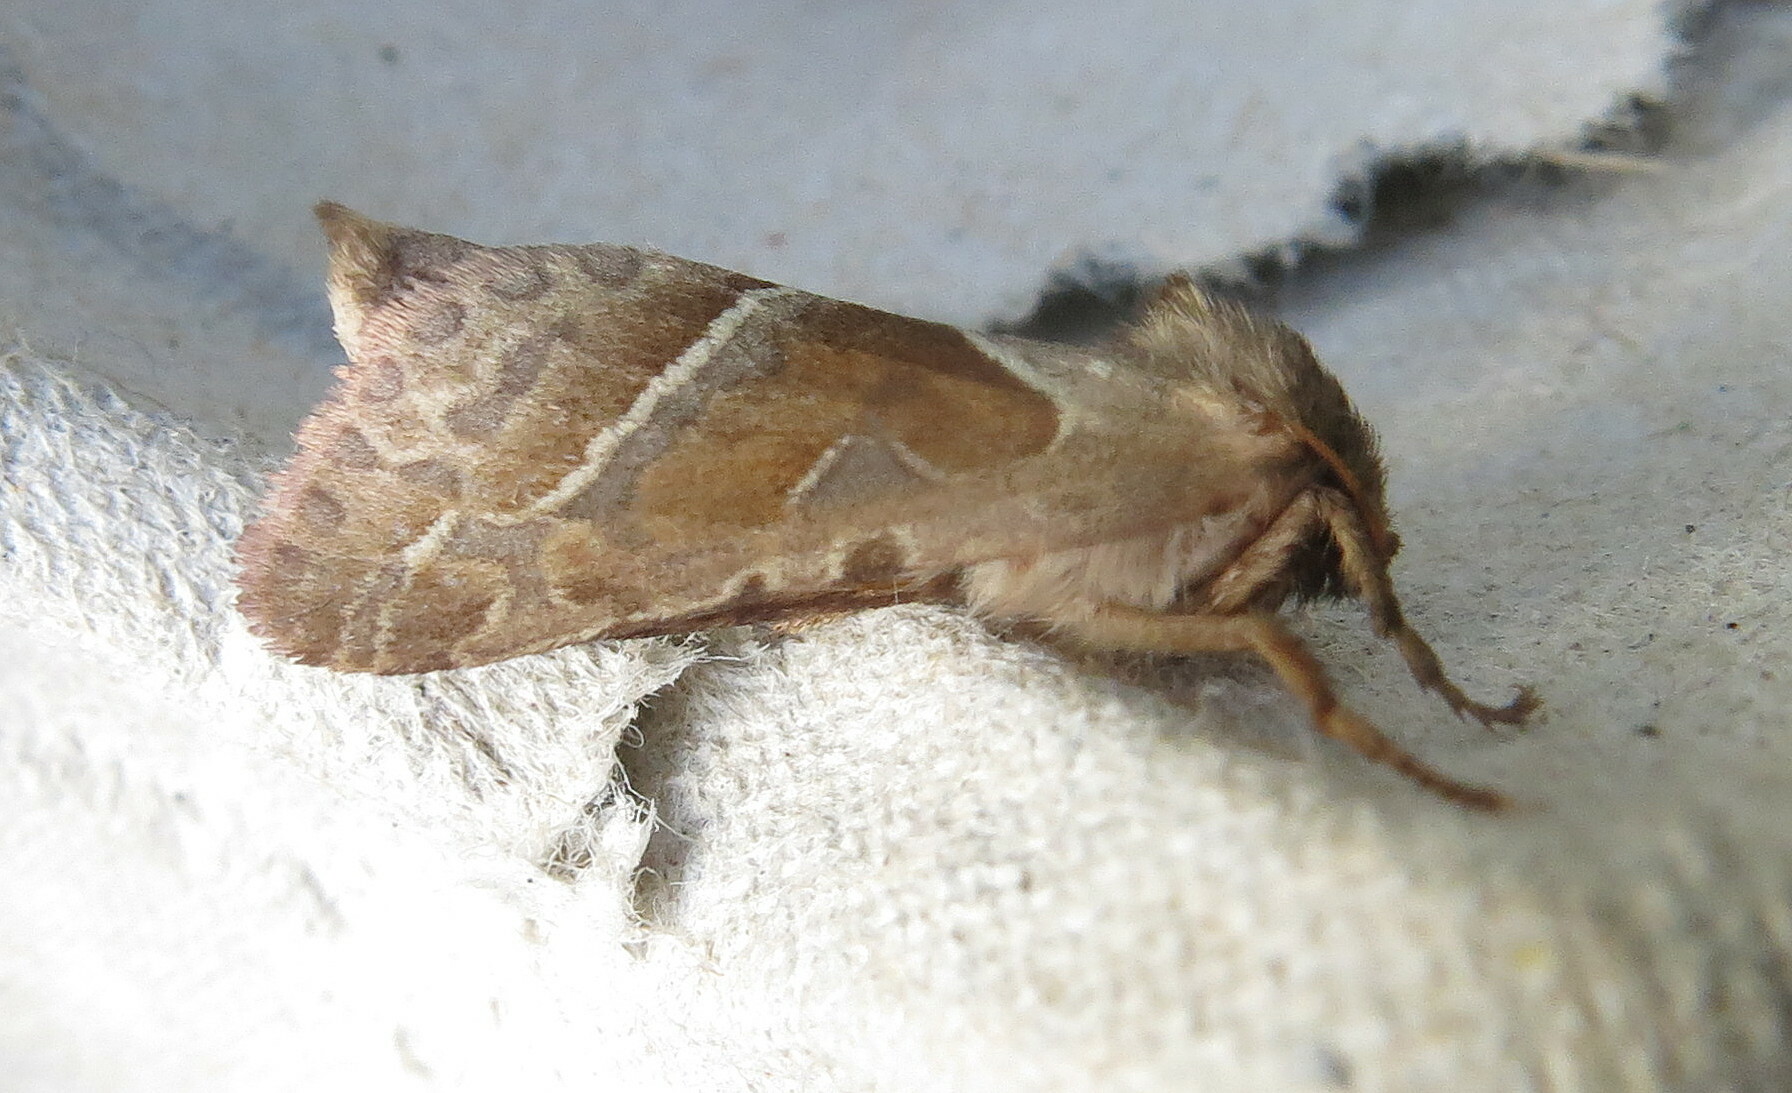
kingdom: Animalia
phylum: Arthropoda
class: Insecta
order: Lepidoptera
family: Hepialidae
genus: Triodia
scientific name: Triodia sylvina
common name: Orange swift
